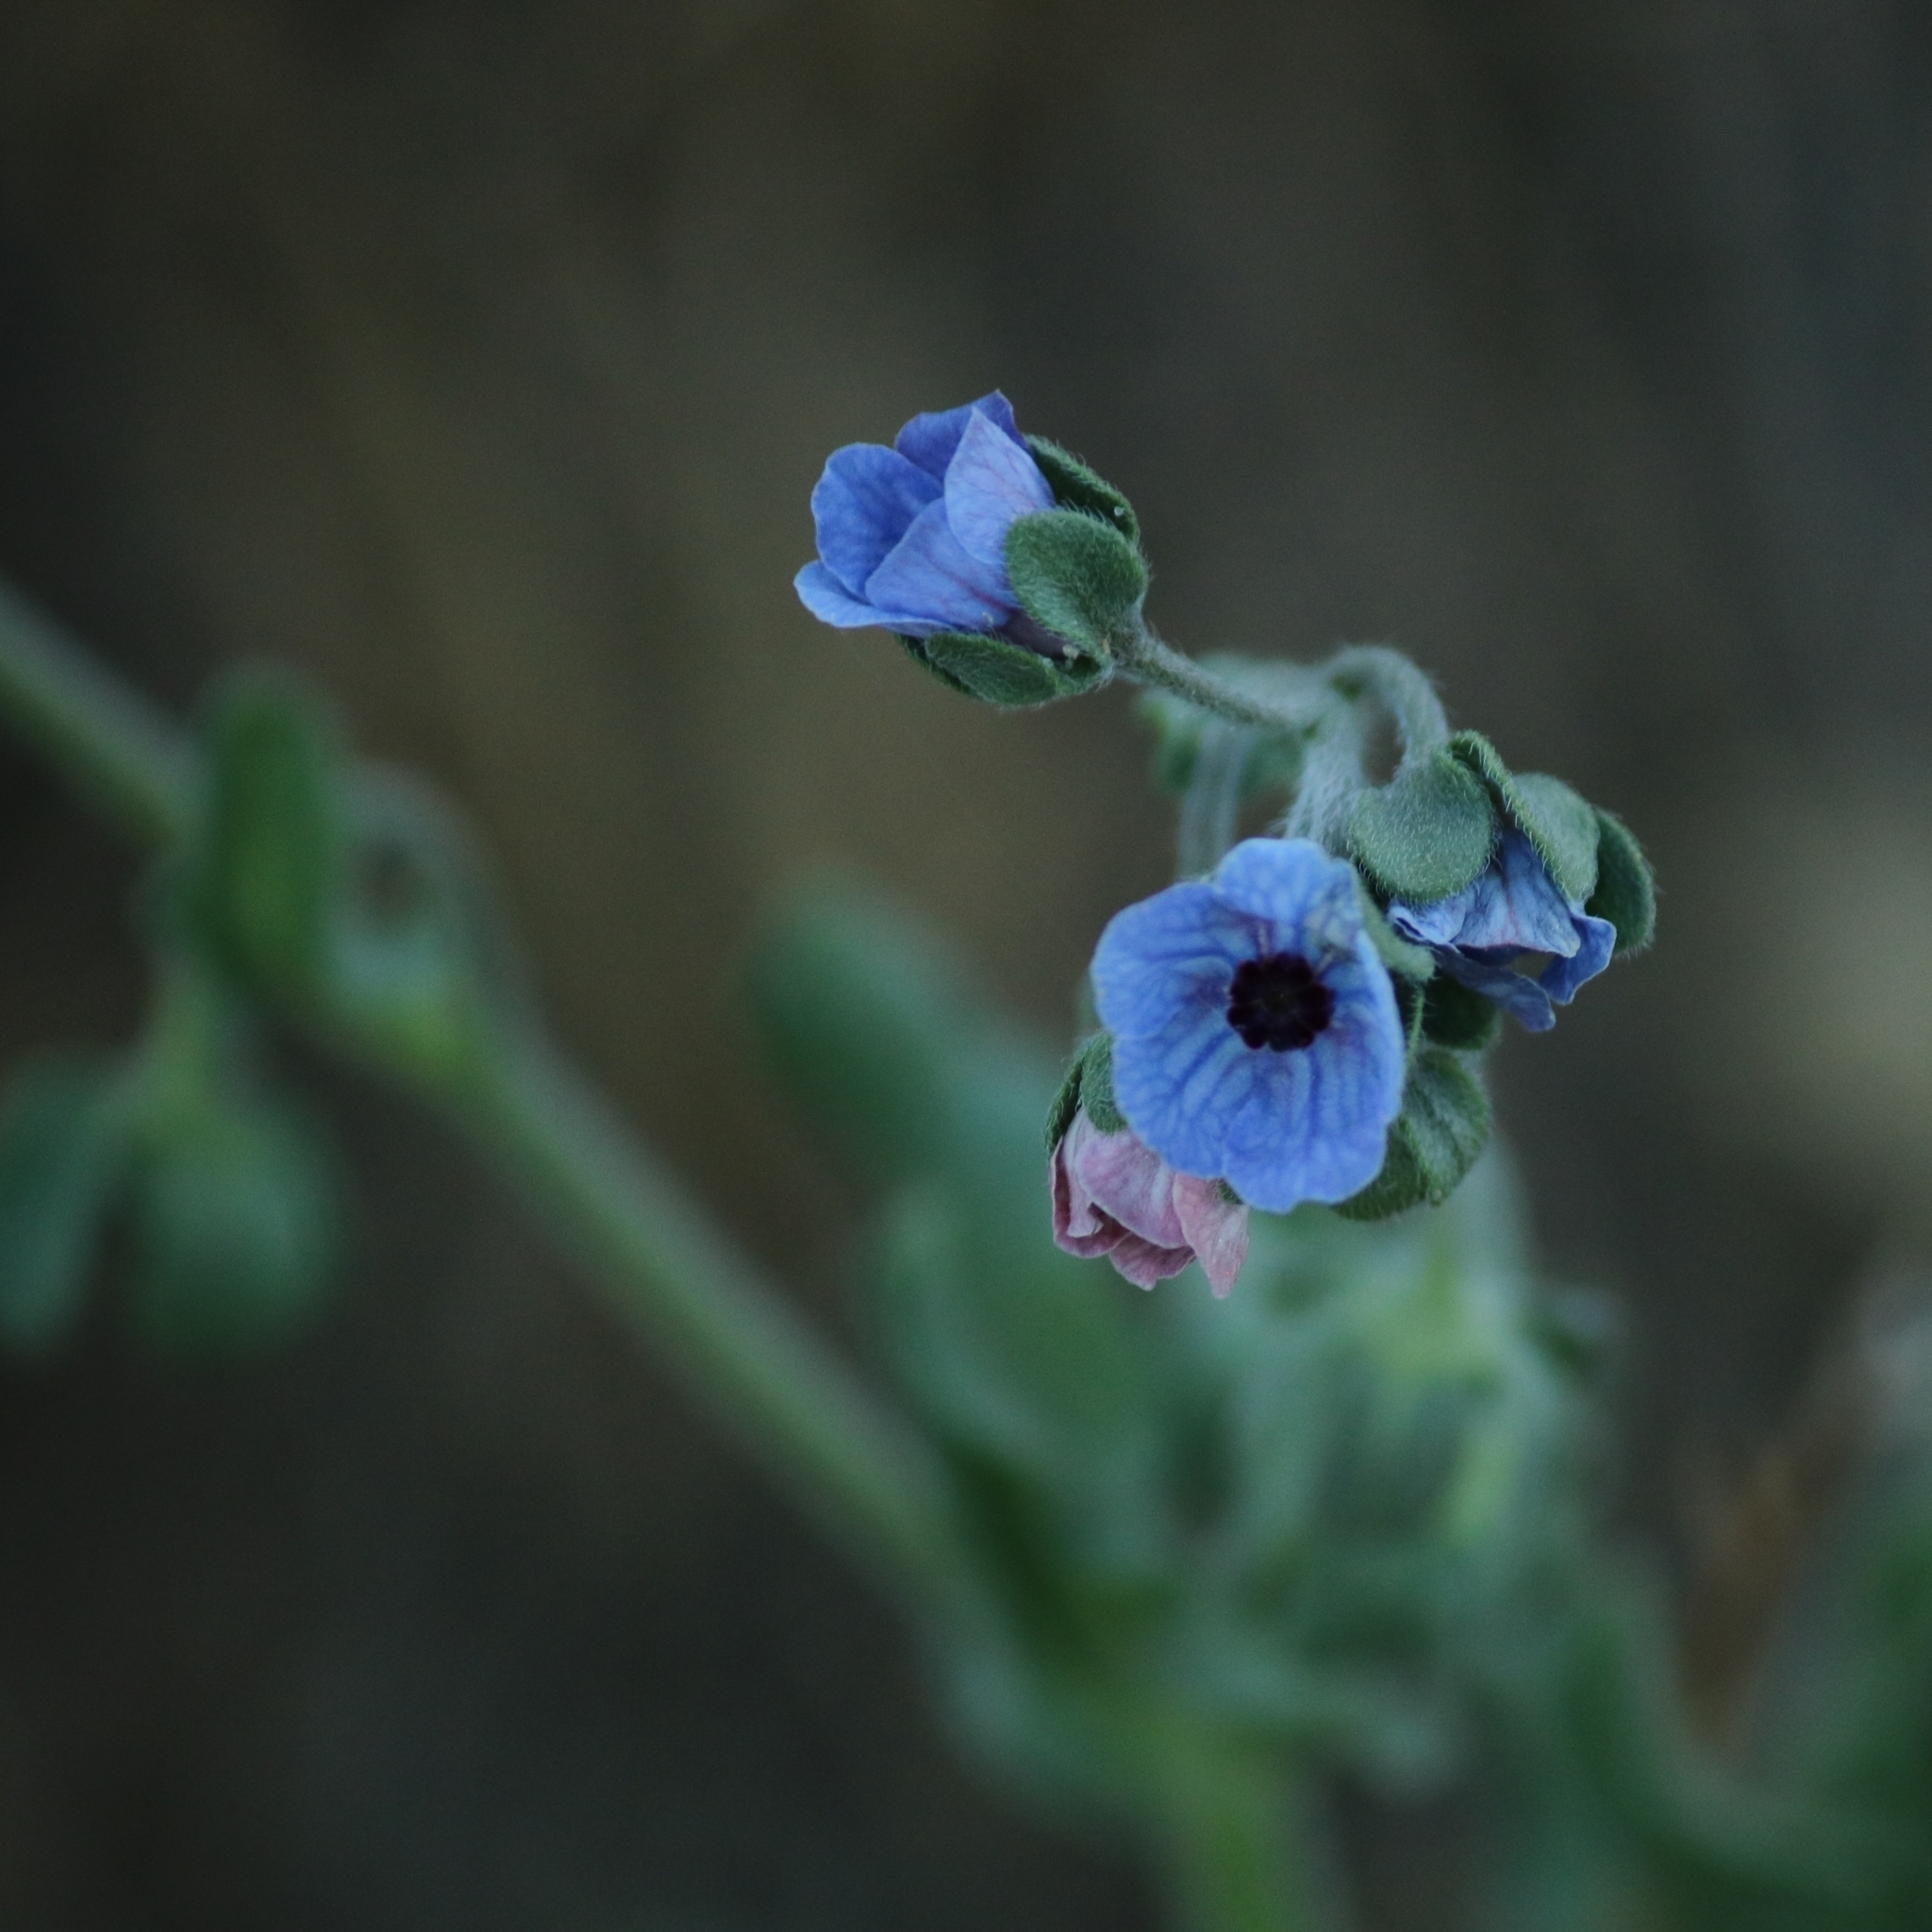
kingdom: Plantae
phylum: Tracheophyta
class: Magnoliopsida
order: Boraginales
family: Boraginaceae
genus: Cynoglossum
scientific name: Cynoglossum creticum
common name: Blue hound's tongue
